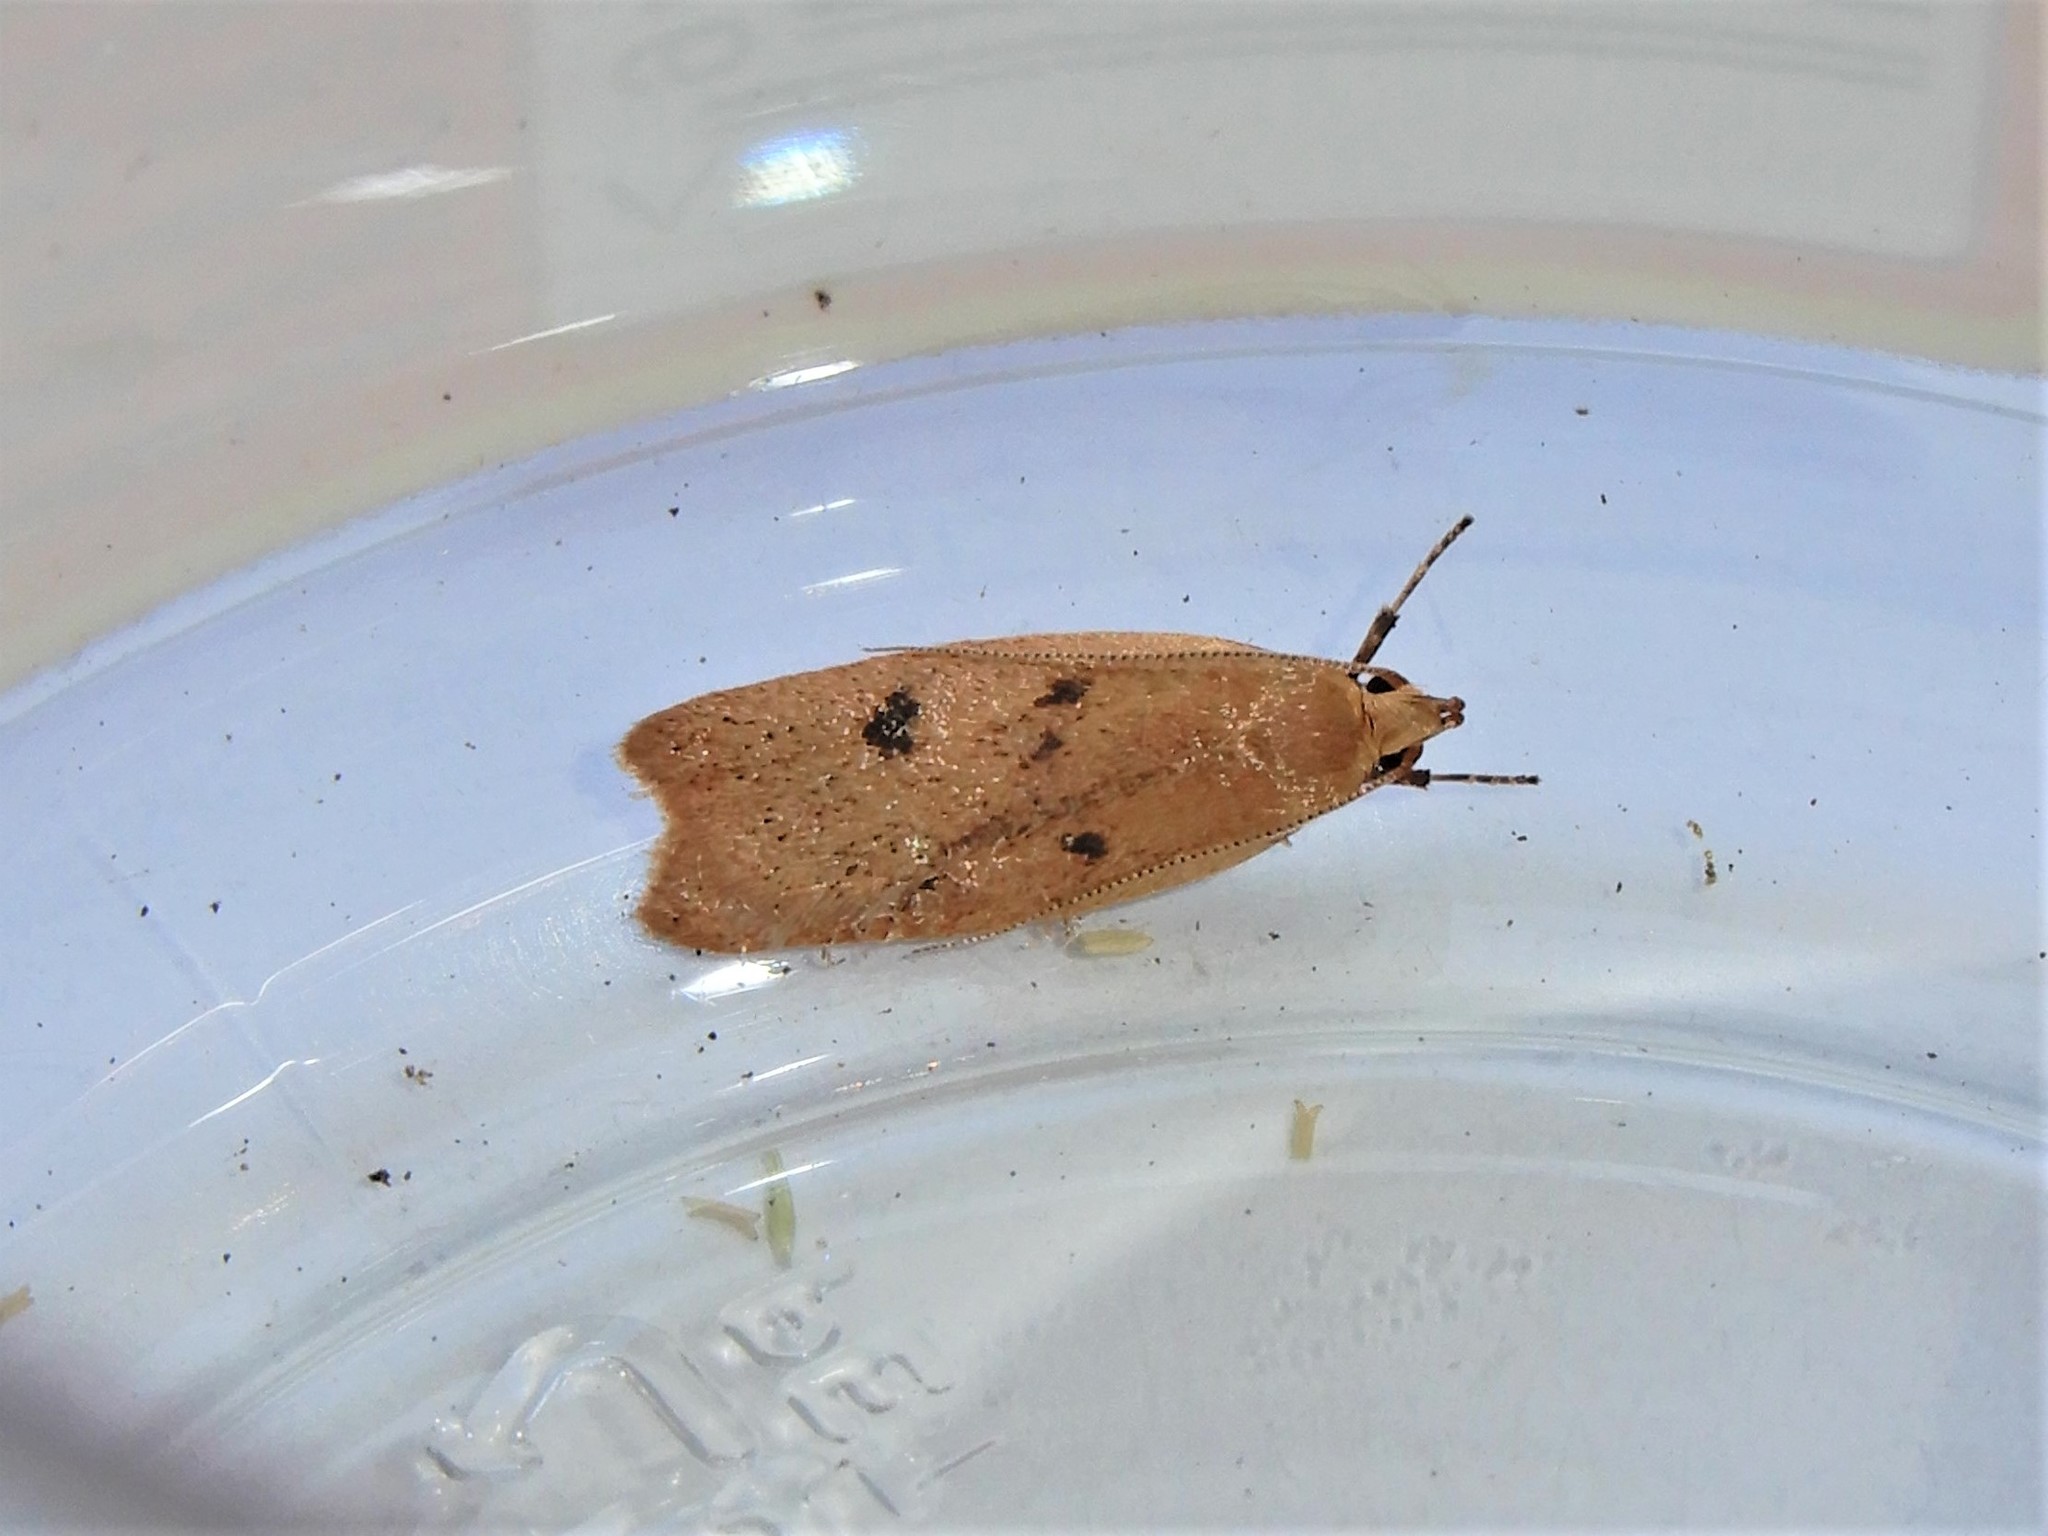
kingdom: Animalia
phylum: Arthropoda
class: Insecta
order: Lepidoptera
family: Oecophoridae
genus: Gymnobathra
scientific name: Gymnobathra sarcoxantha
